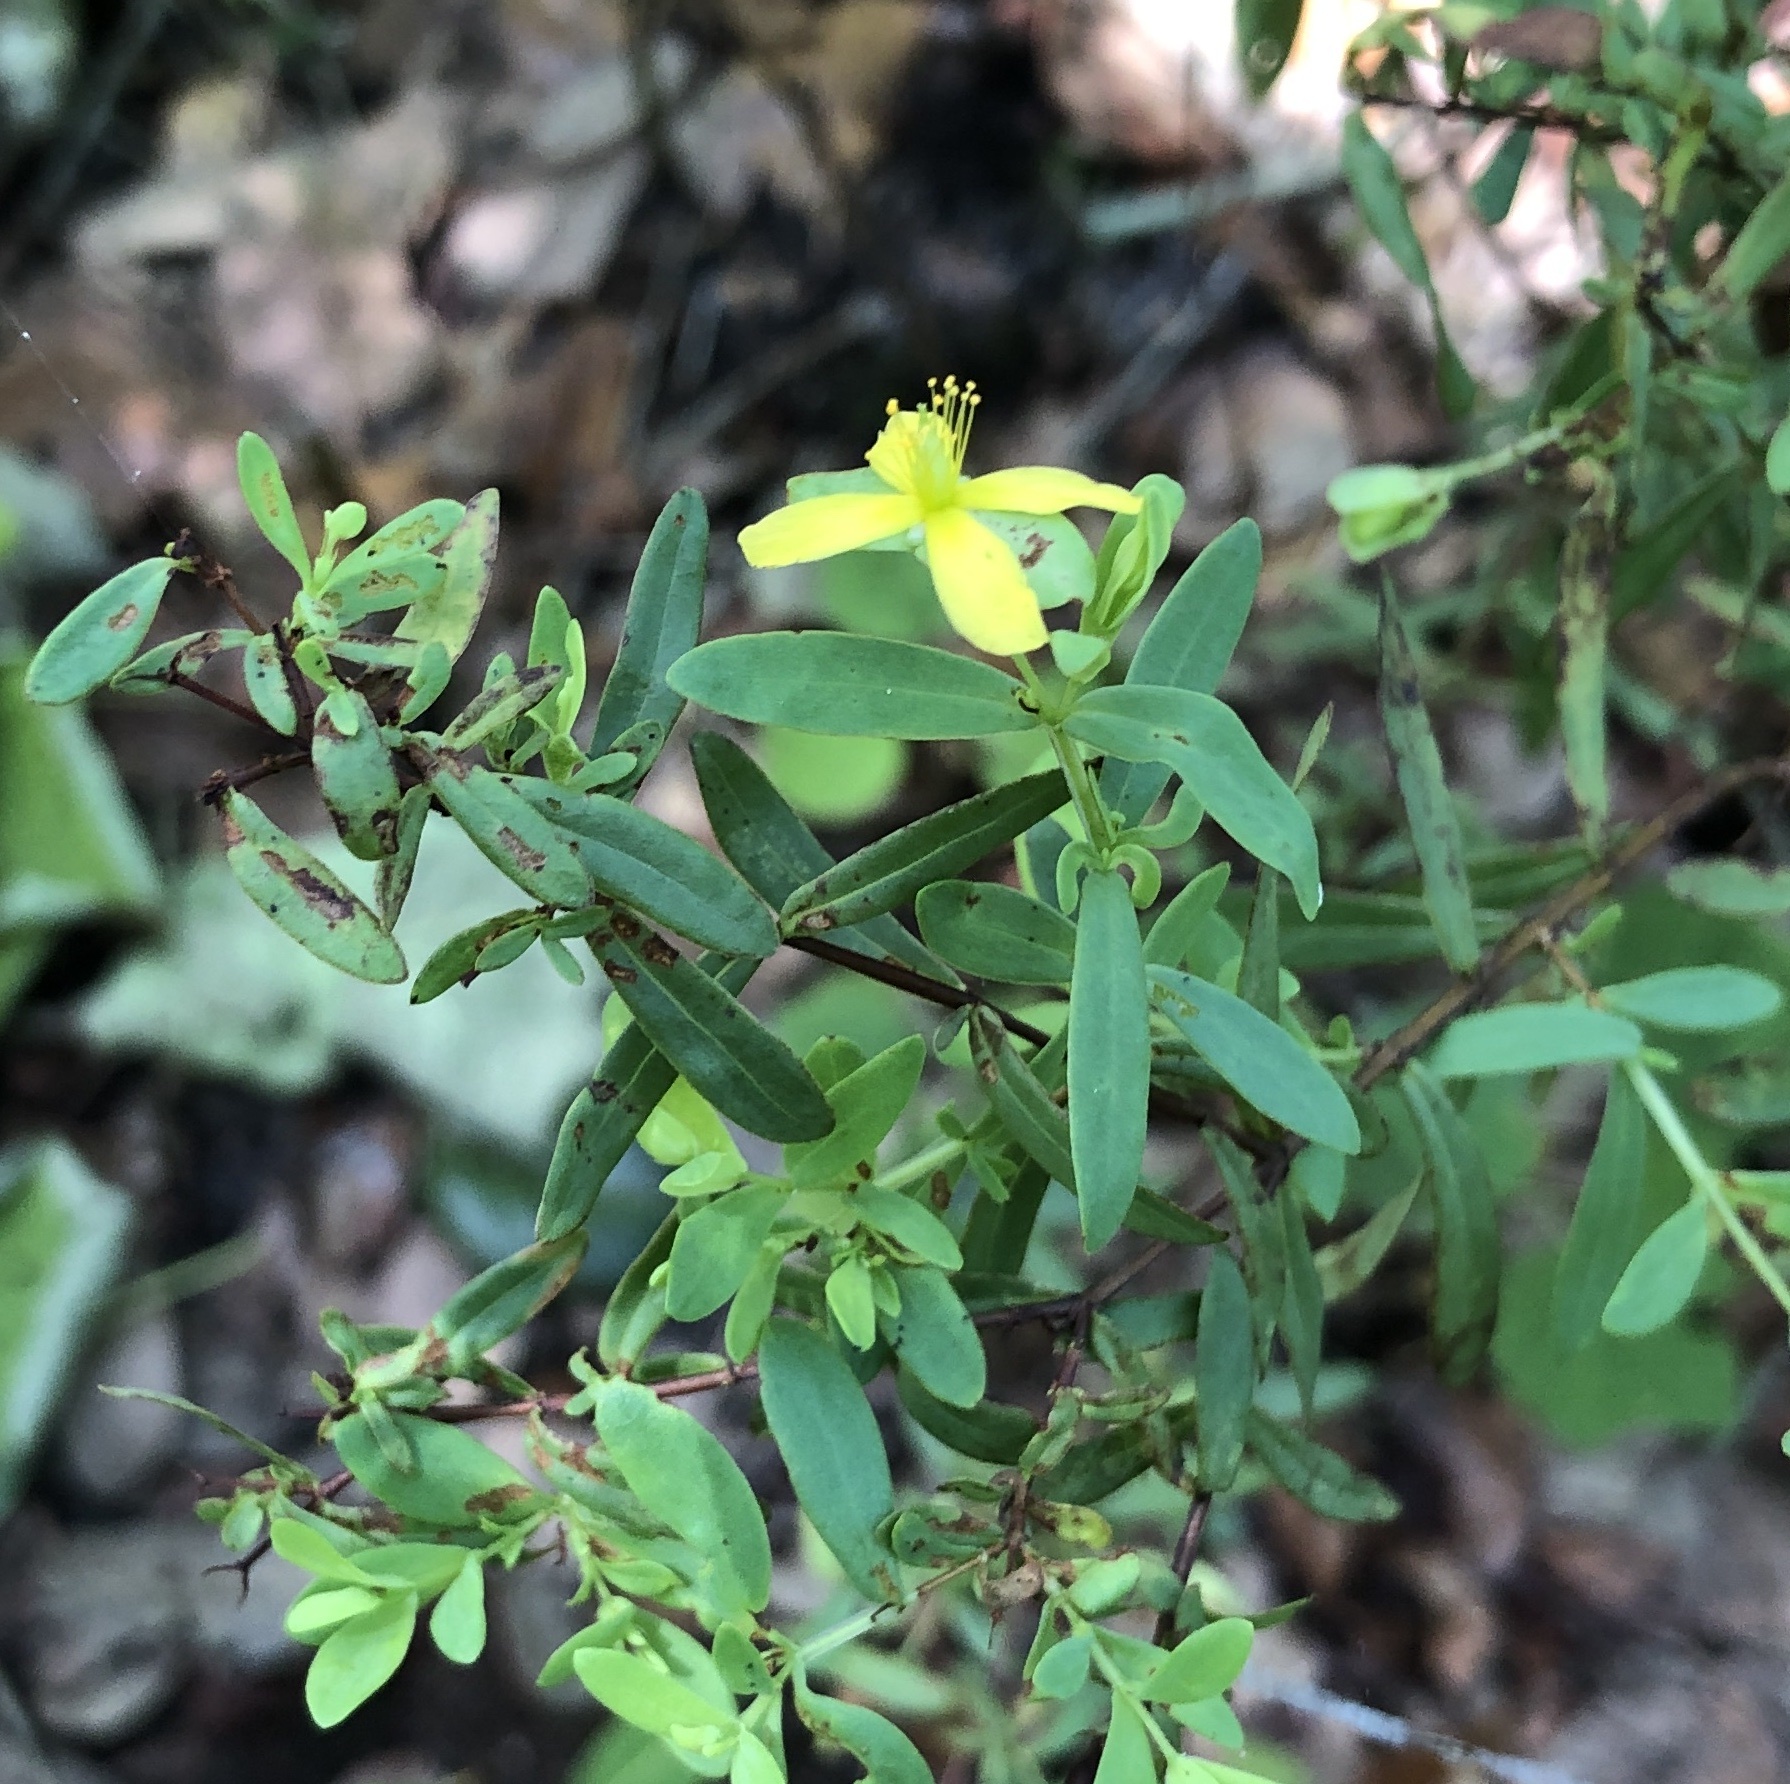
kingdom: Plantae
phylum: Tracheophyta
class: Magnoliopsida
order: Malpighiales
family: Hypericaceae
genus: Hypericum
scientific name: Hypericum hypericoides
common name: St. andrew's cross
